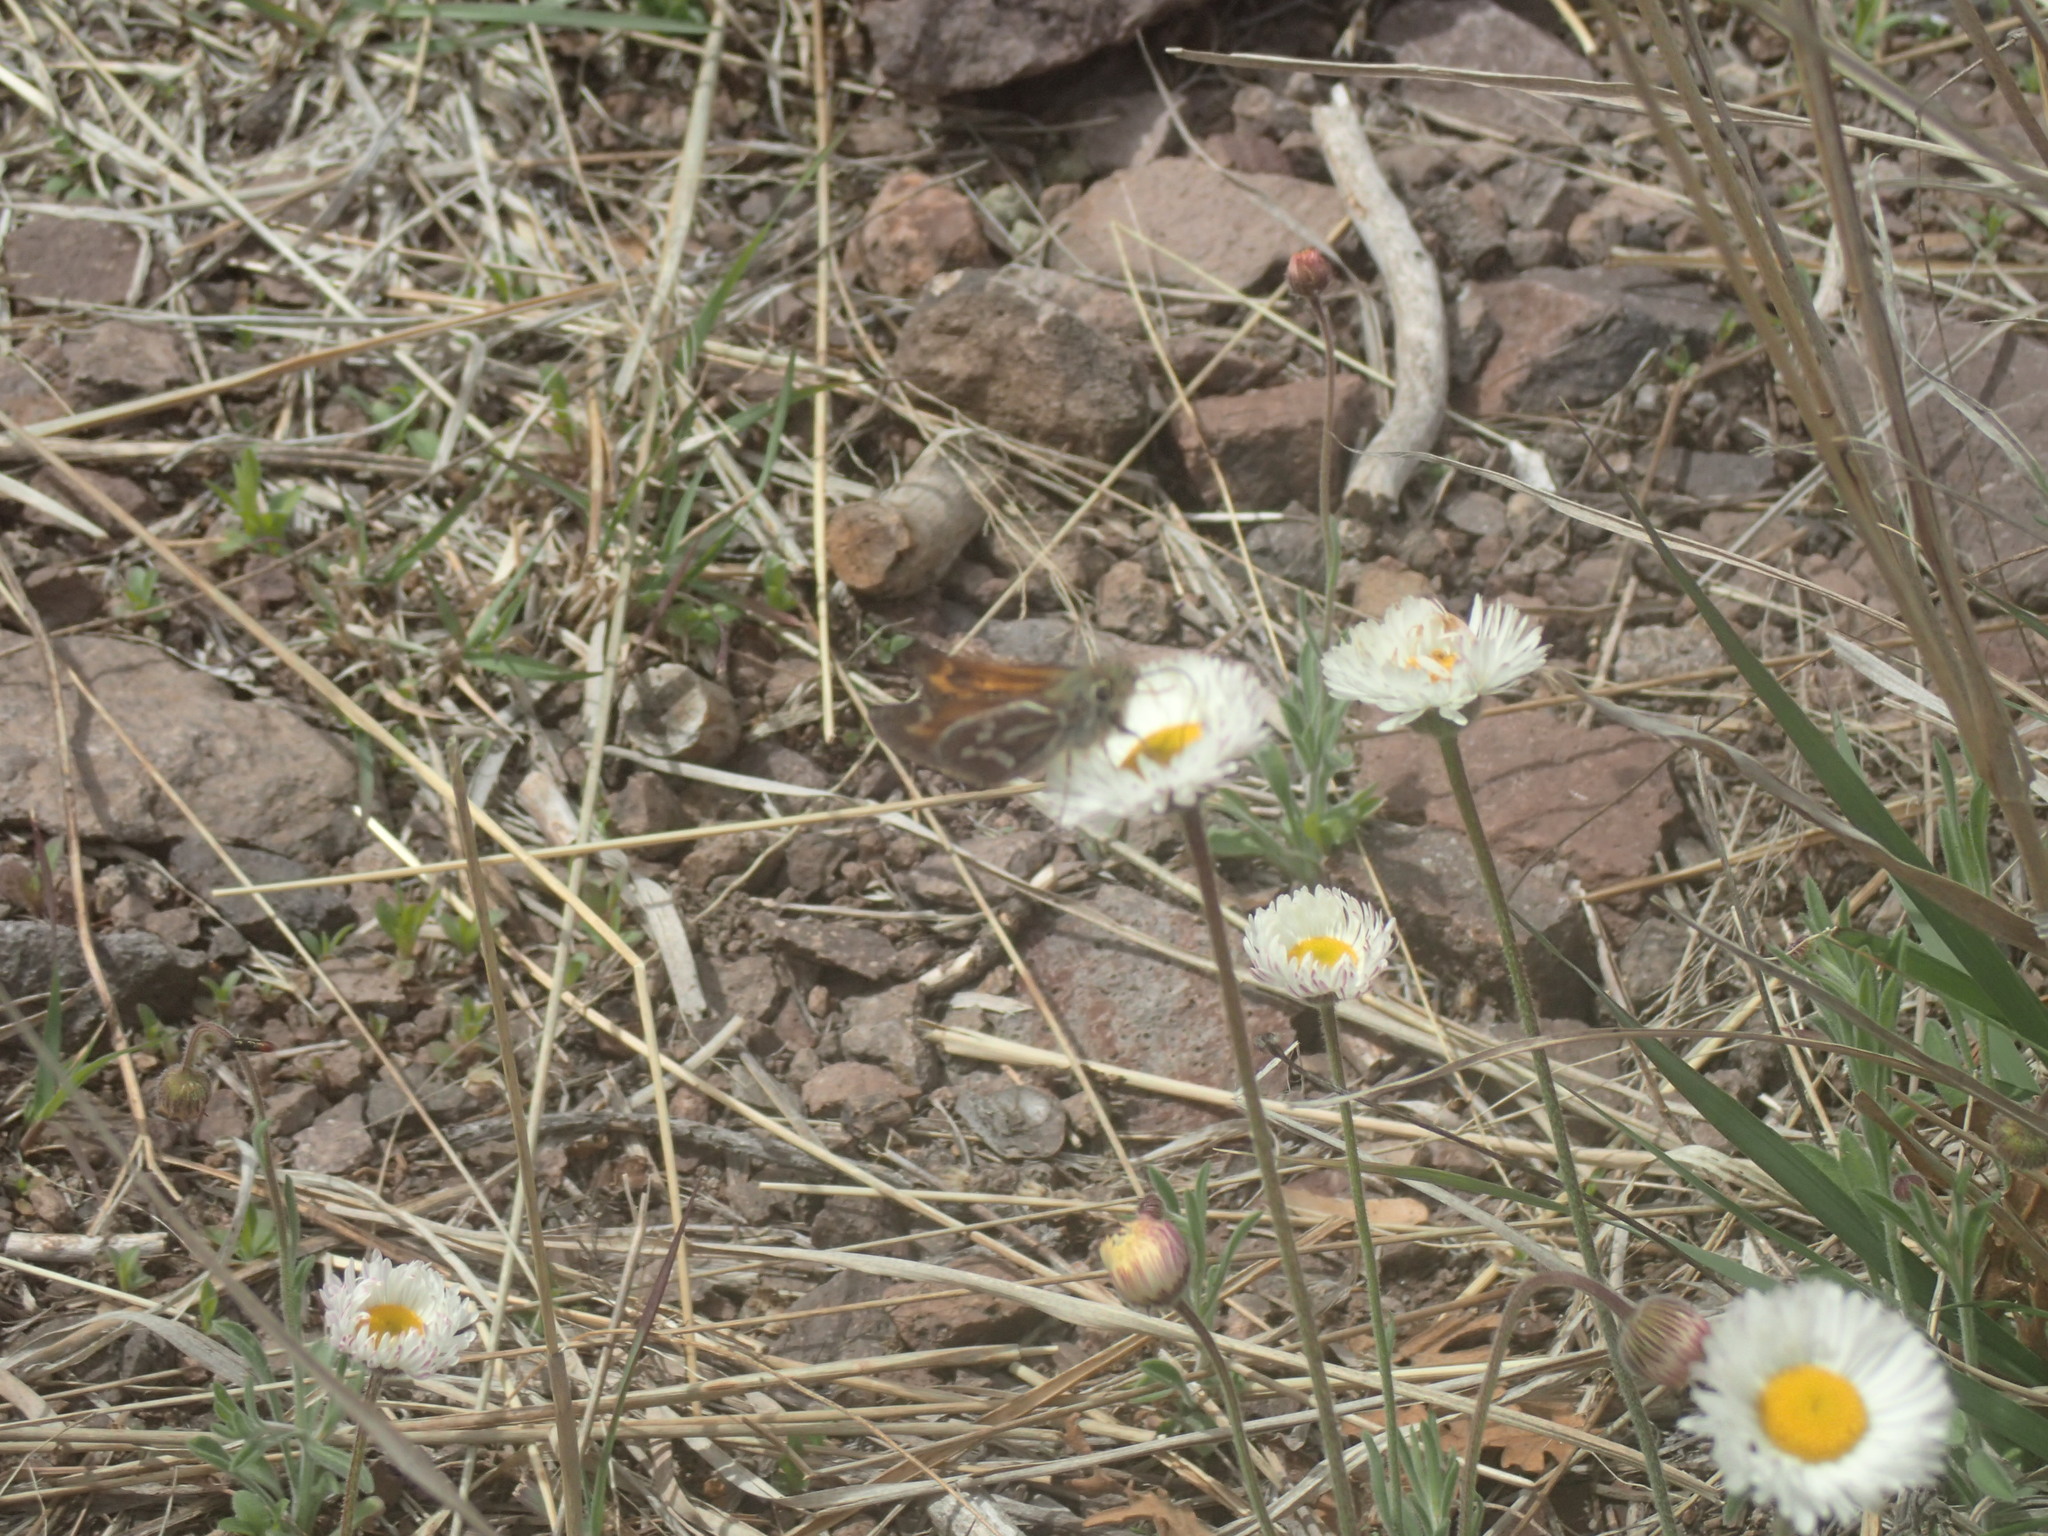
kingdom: Animalia
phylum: Arthropoda
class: Insecta
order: Lepidoptera
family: Hesperiidae
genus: Stinga
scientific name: Stinga morrisoni
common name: Morrison's skipper
